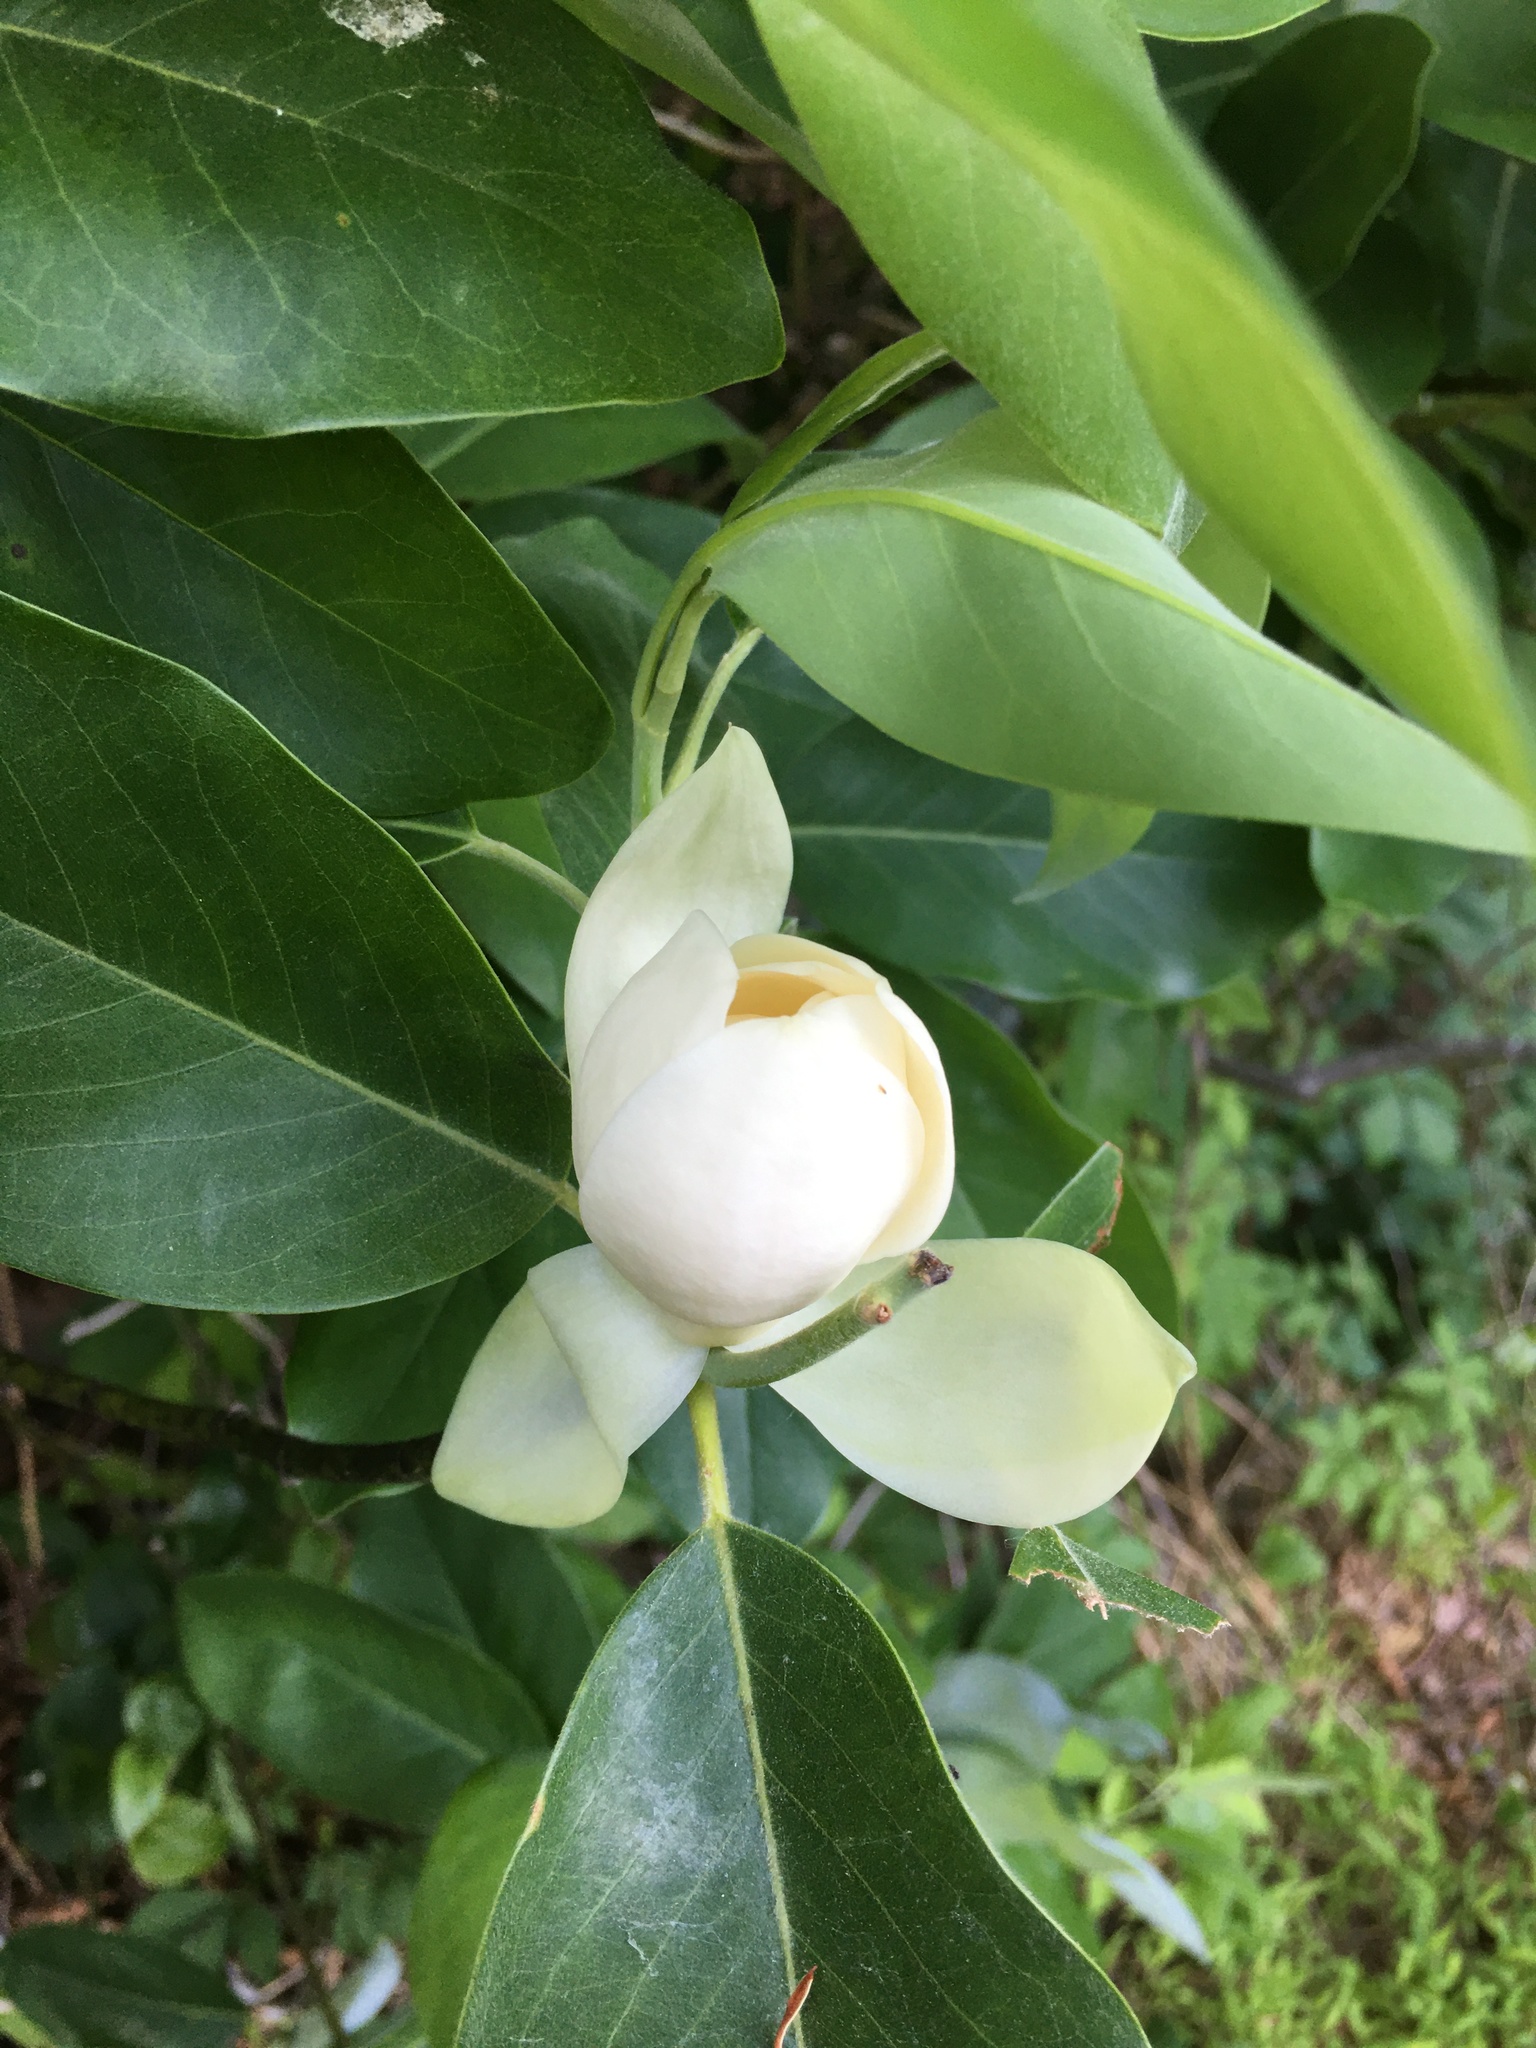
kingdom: Plantae
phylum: Tracheophyta
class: Magnoliopsida
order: Magnoliales
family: Magnoliaceae
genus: Magnolia
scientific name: Magnolia virginiana
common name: Swamp bay
